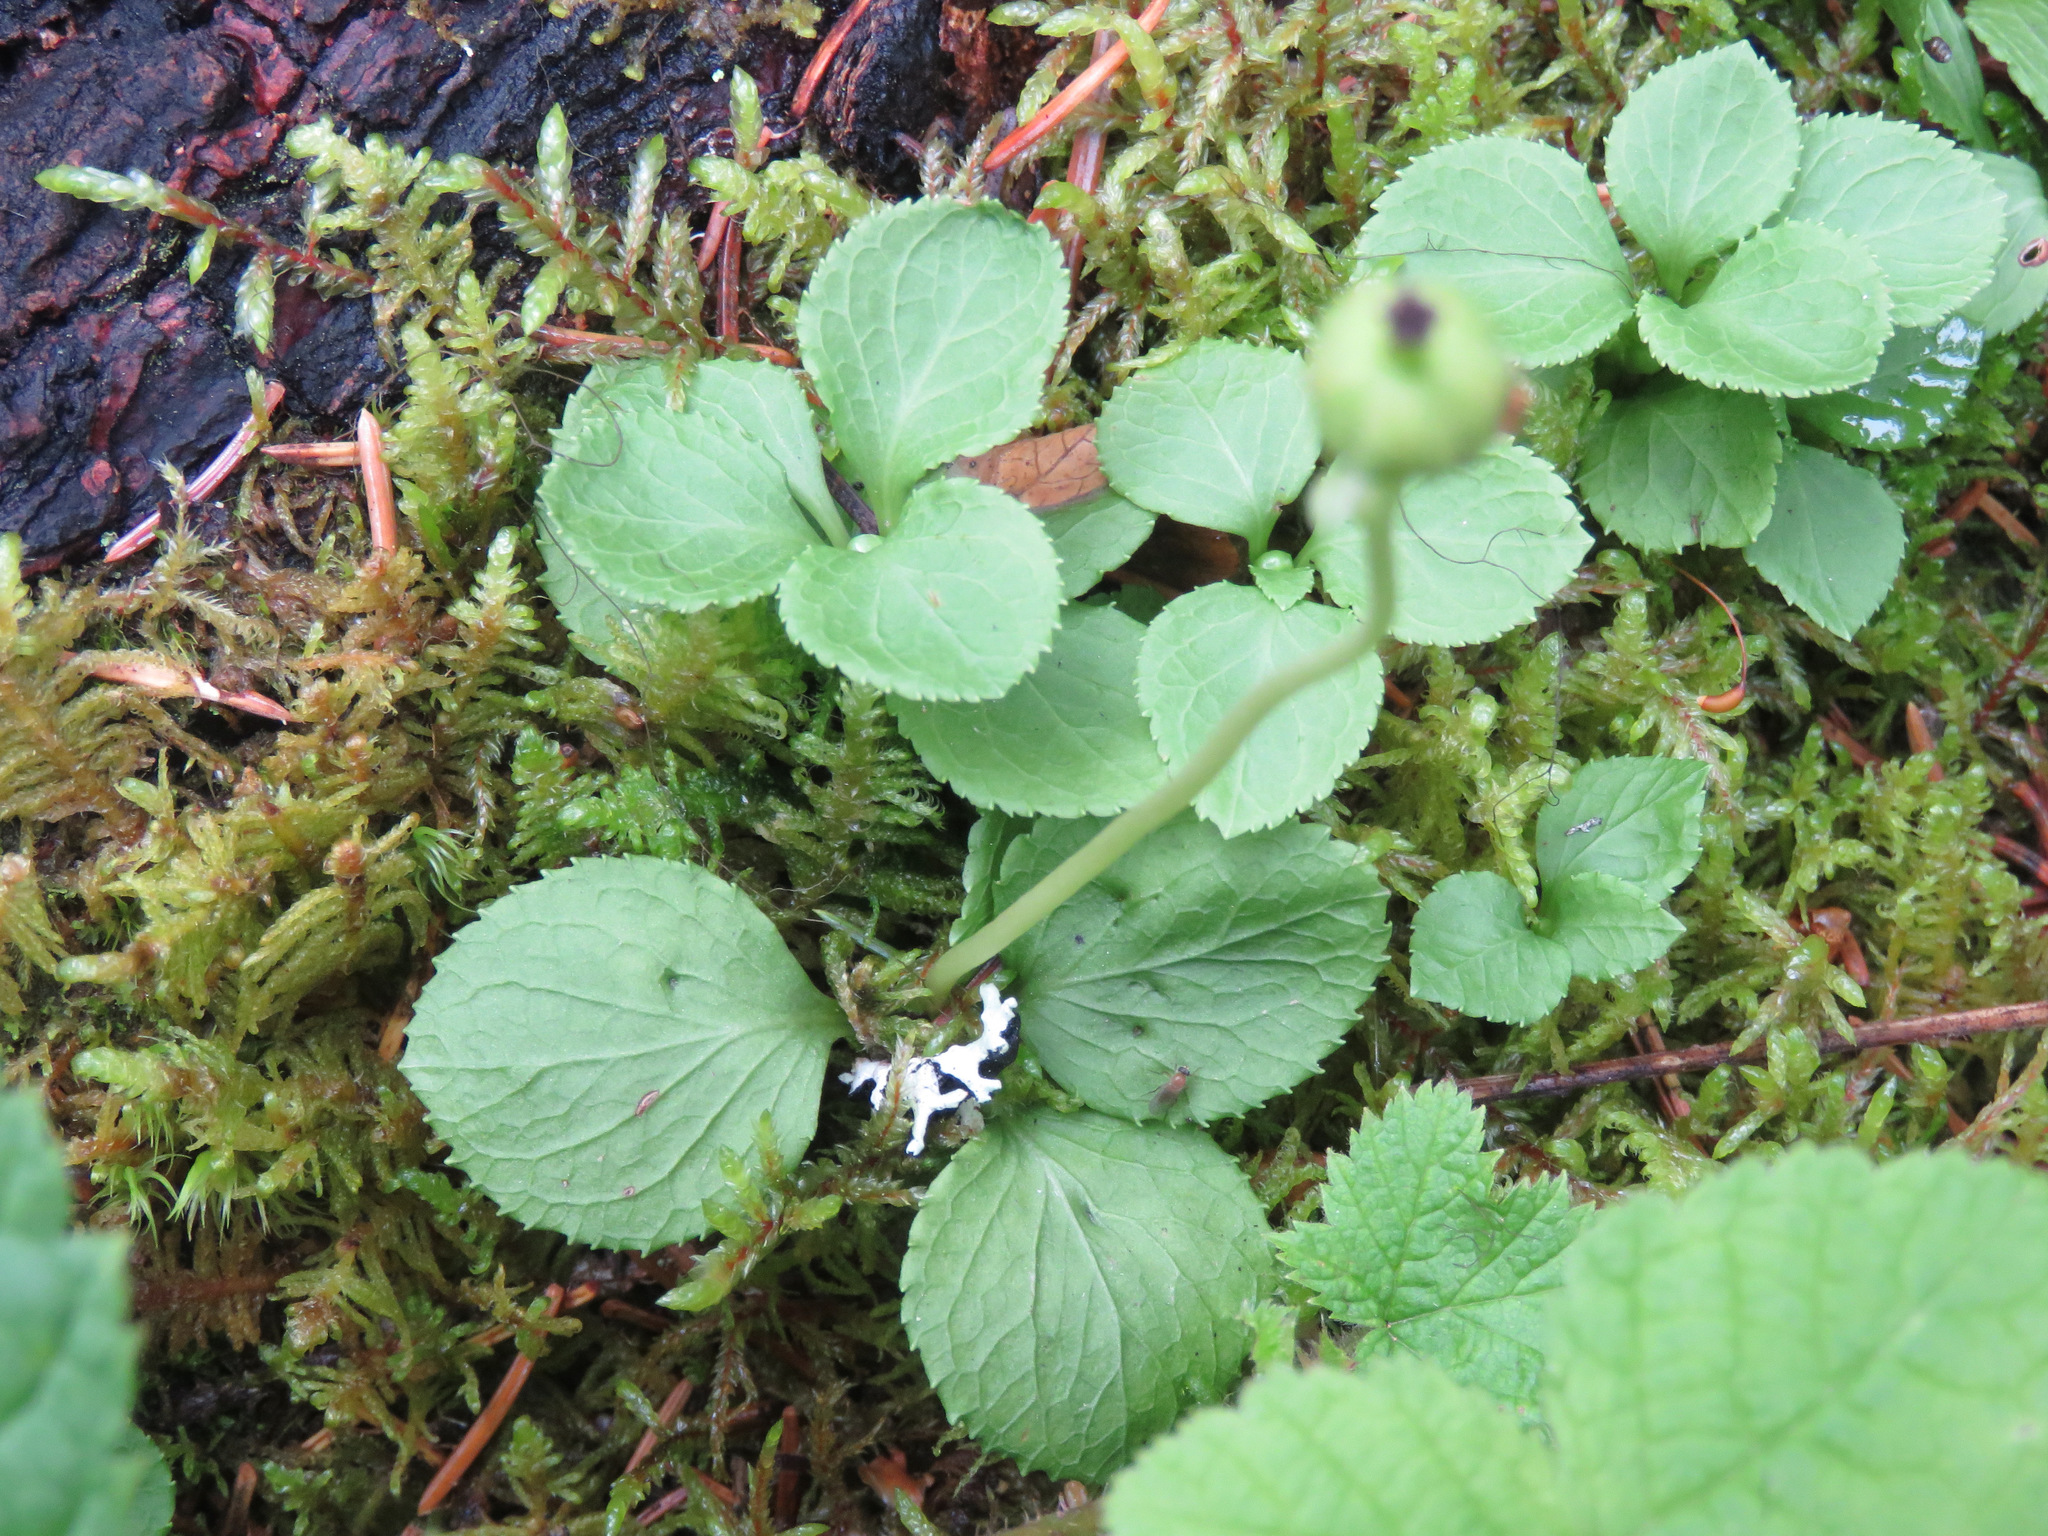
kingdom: Plantae
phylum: Tracheophyta
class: Magnoliopsida
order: Ericales
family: Ericaceae
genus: Moneses
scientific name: Moneses uniflora
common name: One-flowered wintergreen
